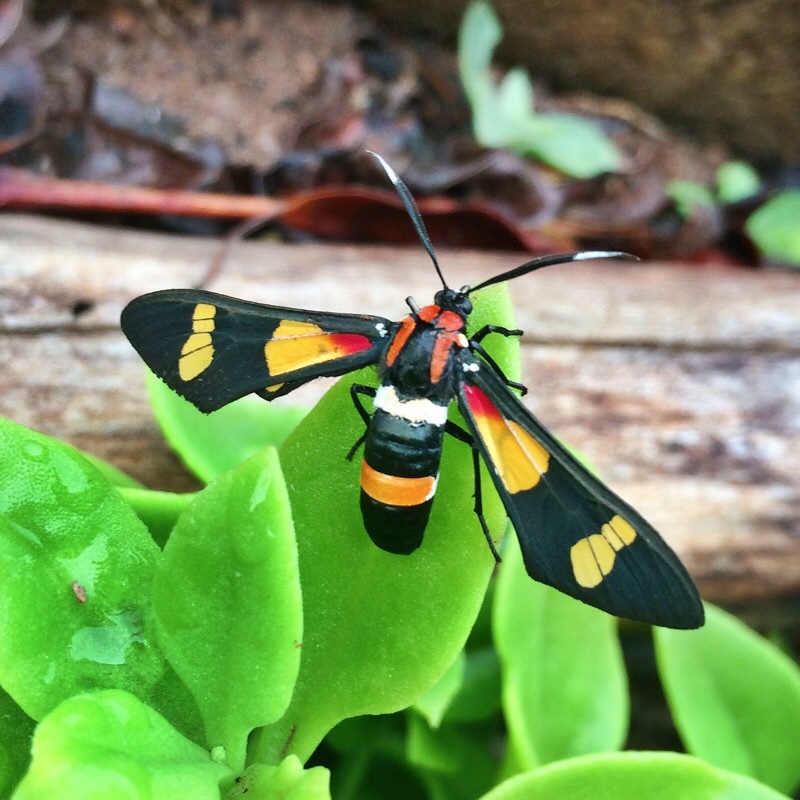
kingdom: Animalia
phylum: Arthropoda
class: Insecta
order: Lepidoptera
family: Erebidae
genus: Euchromia
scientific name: Euchromia amoena
